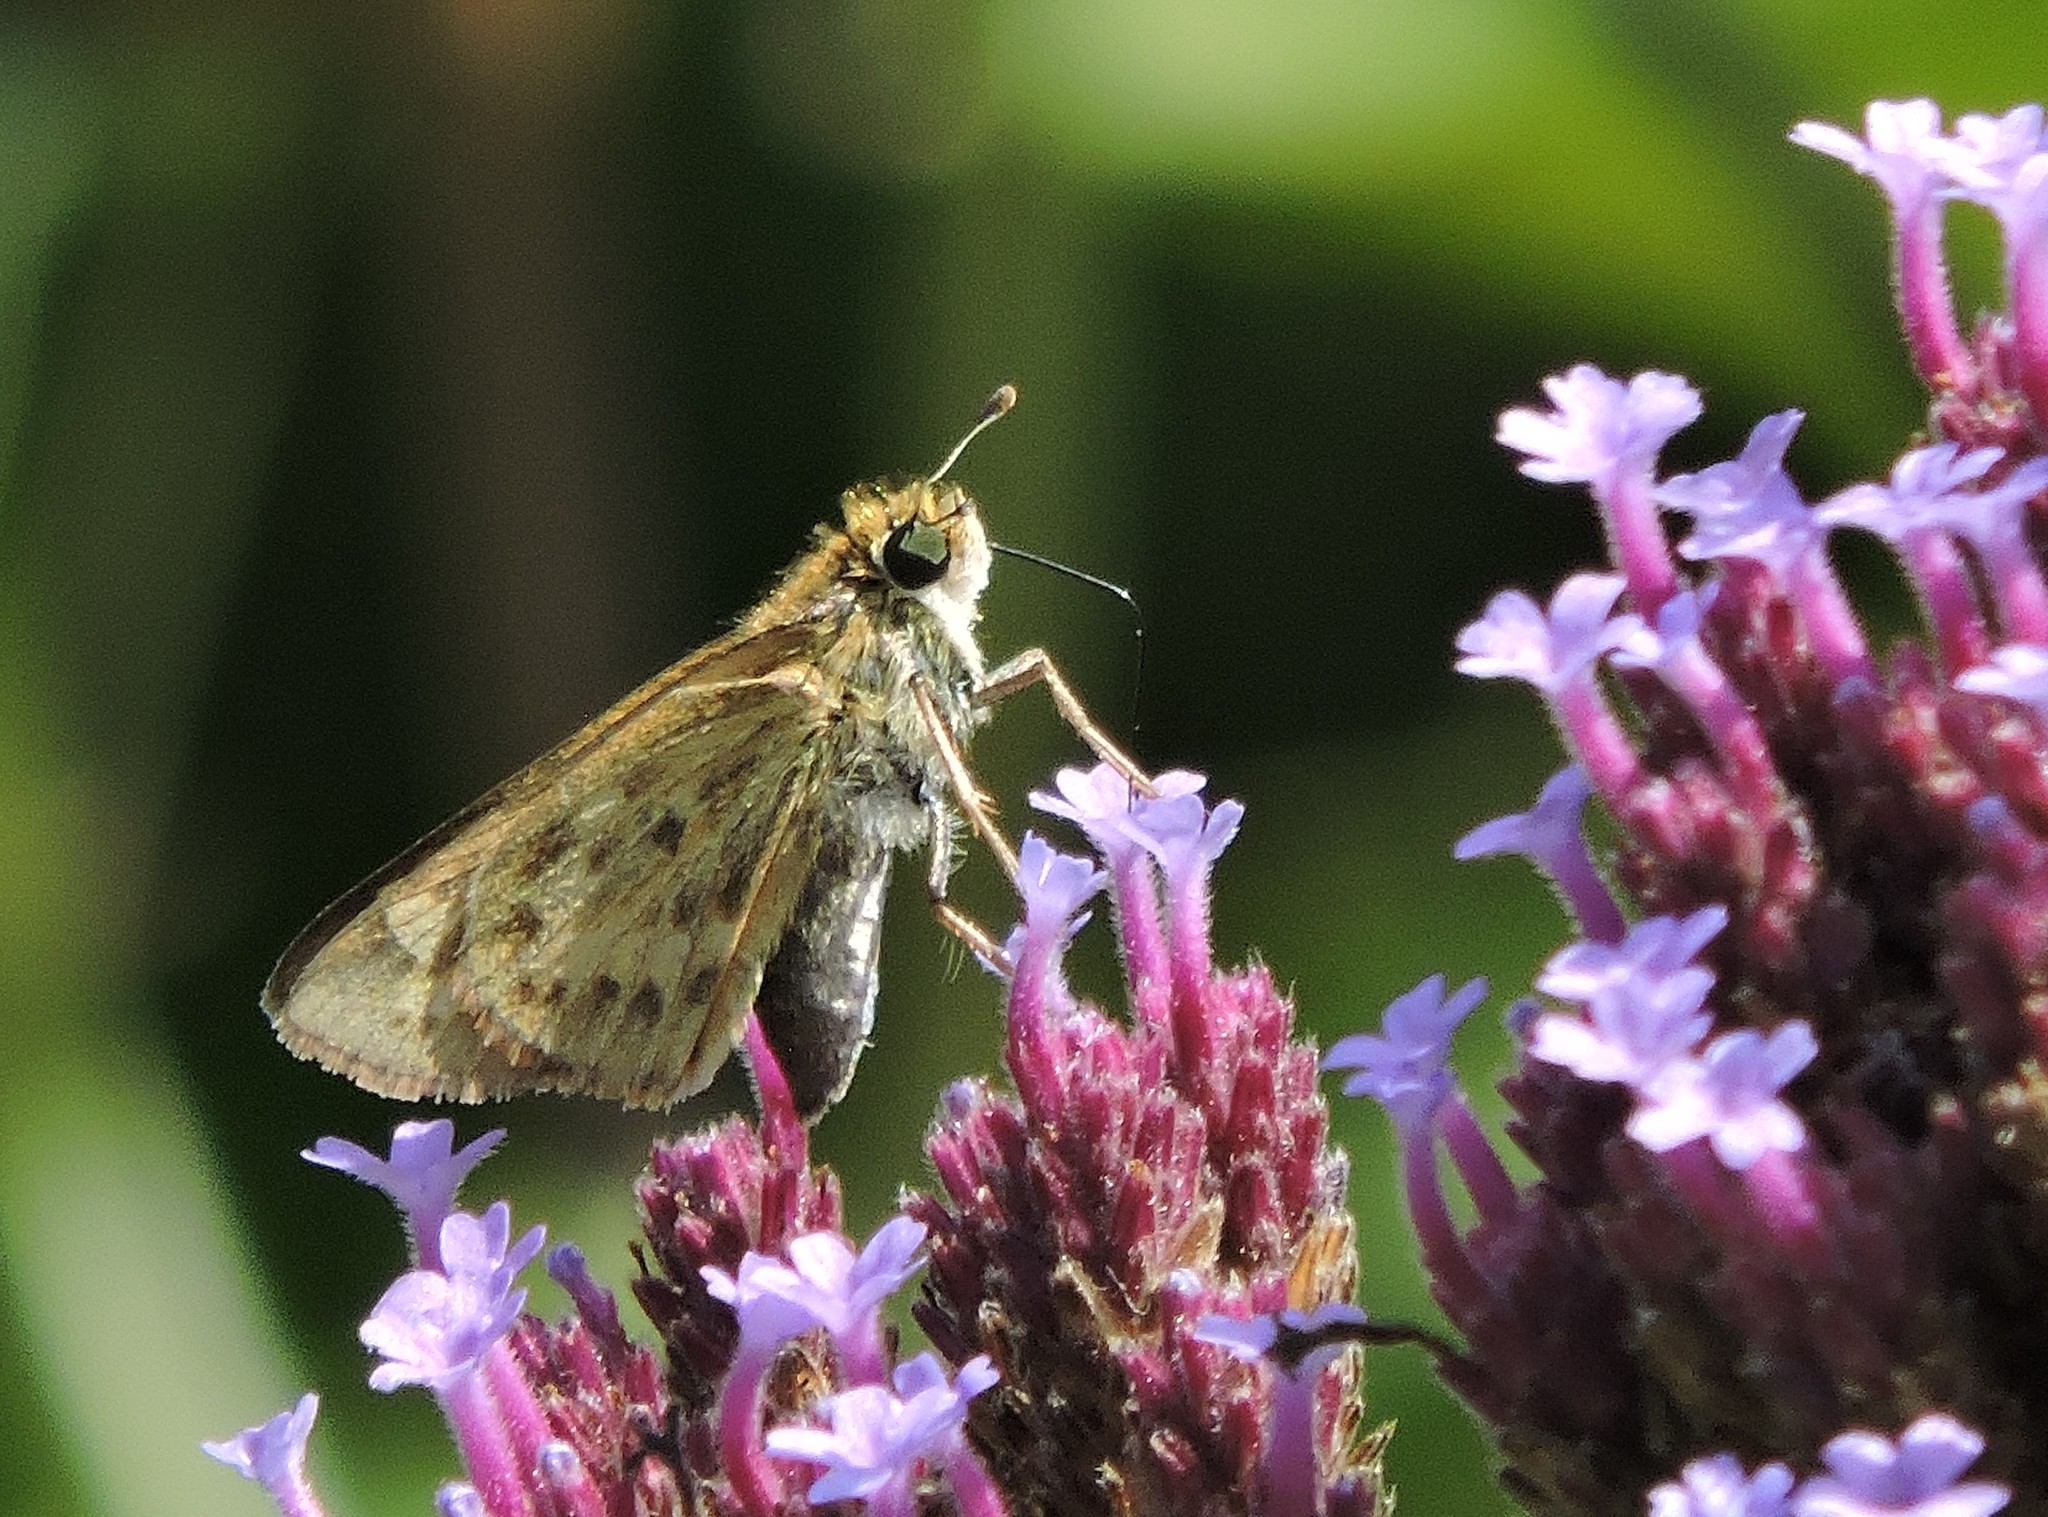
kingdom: Animalia
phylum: Arthropoda
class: Insecta
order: Lepidoptera
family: Hesperiidae
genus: Hylephila
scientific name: Hylephila phyleus
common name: Fiery skipper
